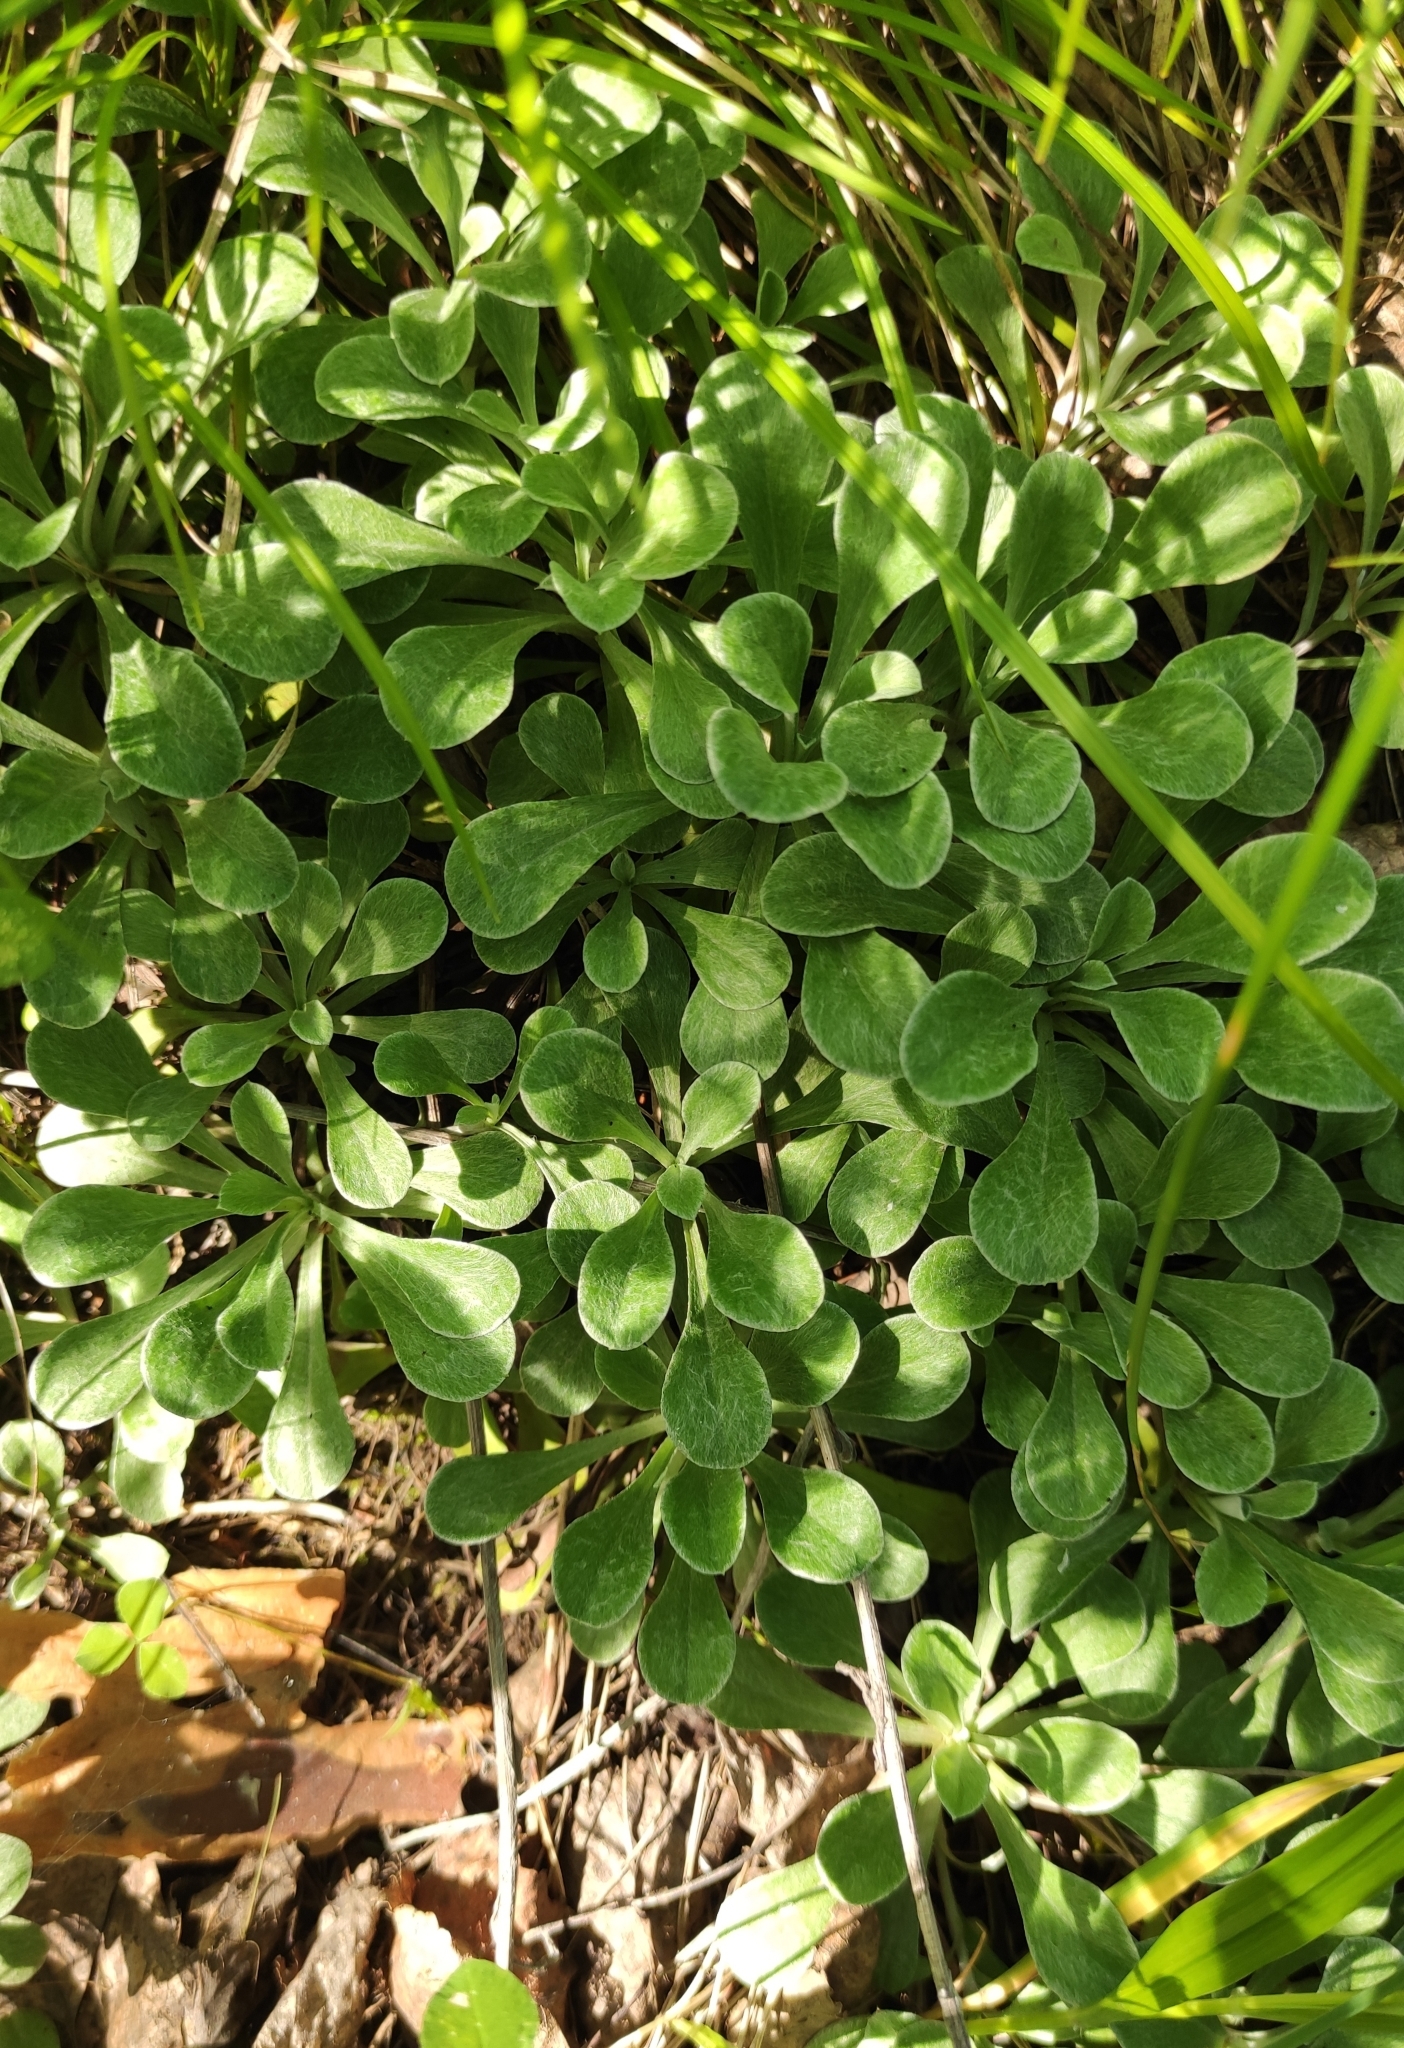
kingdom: Plantae
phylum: Tracheophyta
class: Magnoliopsida
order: Asterales
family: Asteraceae
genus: Antennaria
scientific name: Antennaria dioica
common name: Mountain everlasting
